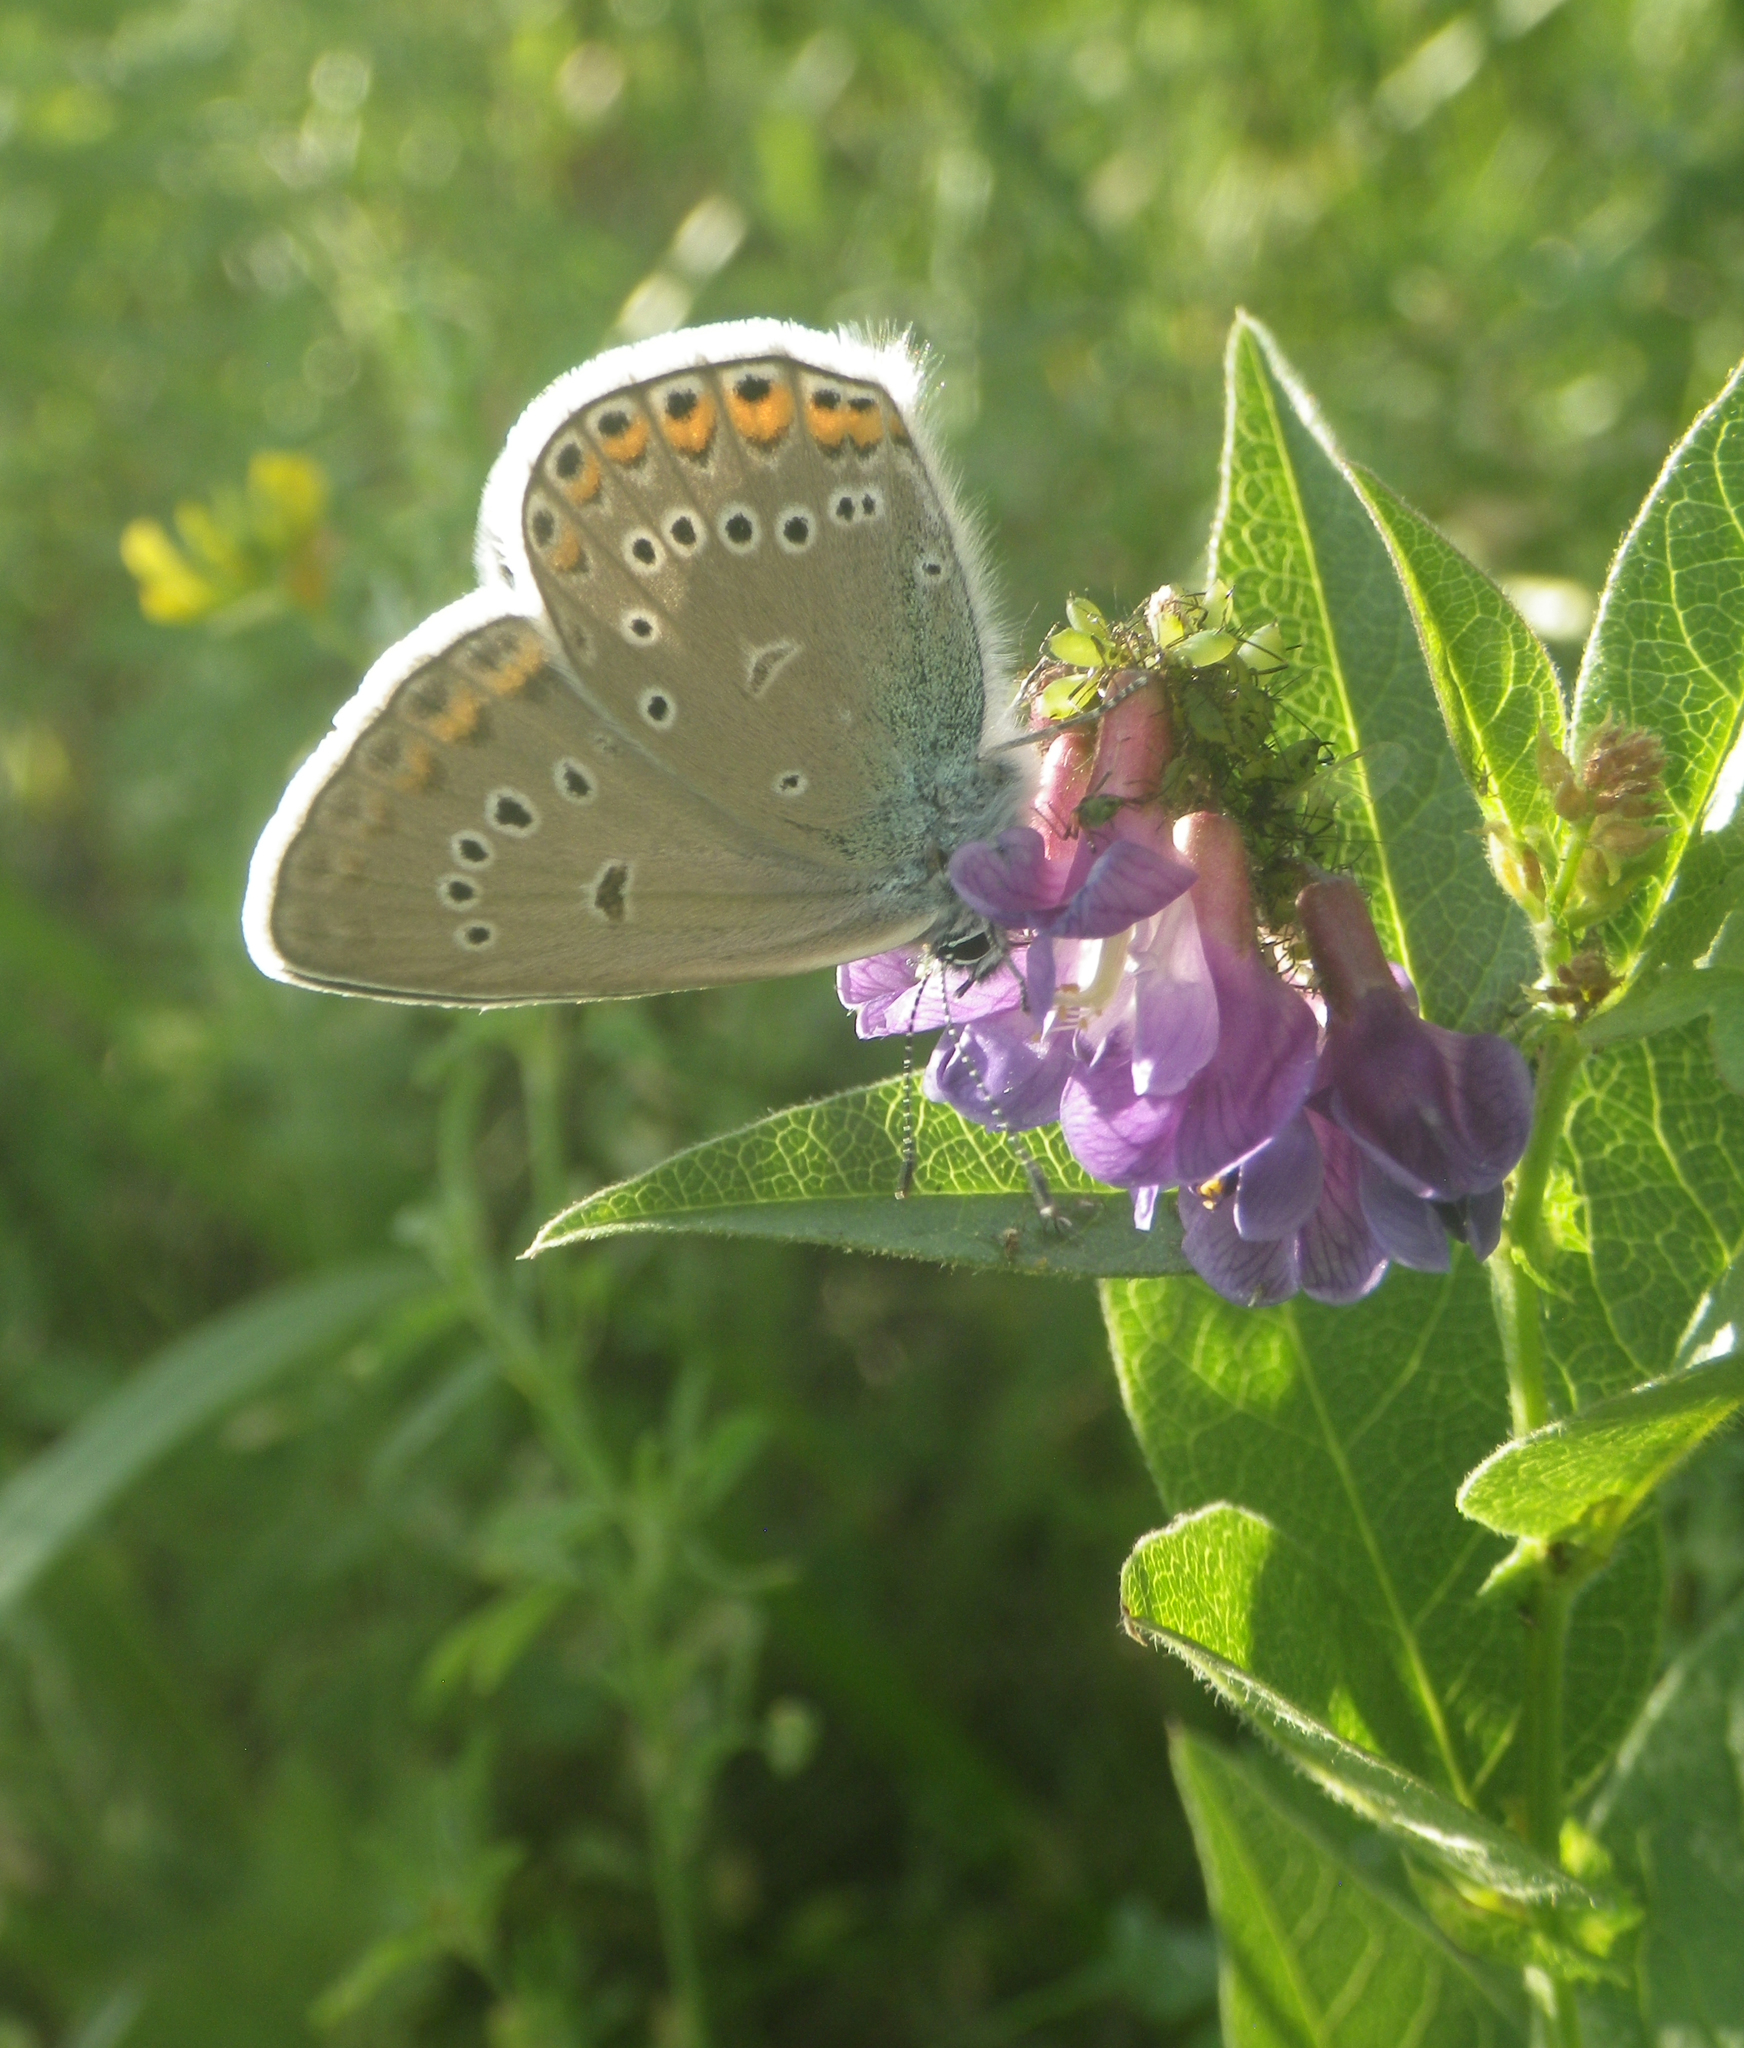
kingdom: Animalia
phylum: Arthropoda
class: Insecta
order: Lepidoptera
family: Lycaenidae
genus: Plebejus
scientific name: Plebejus amanda
